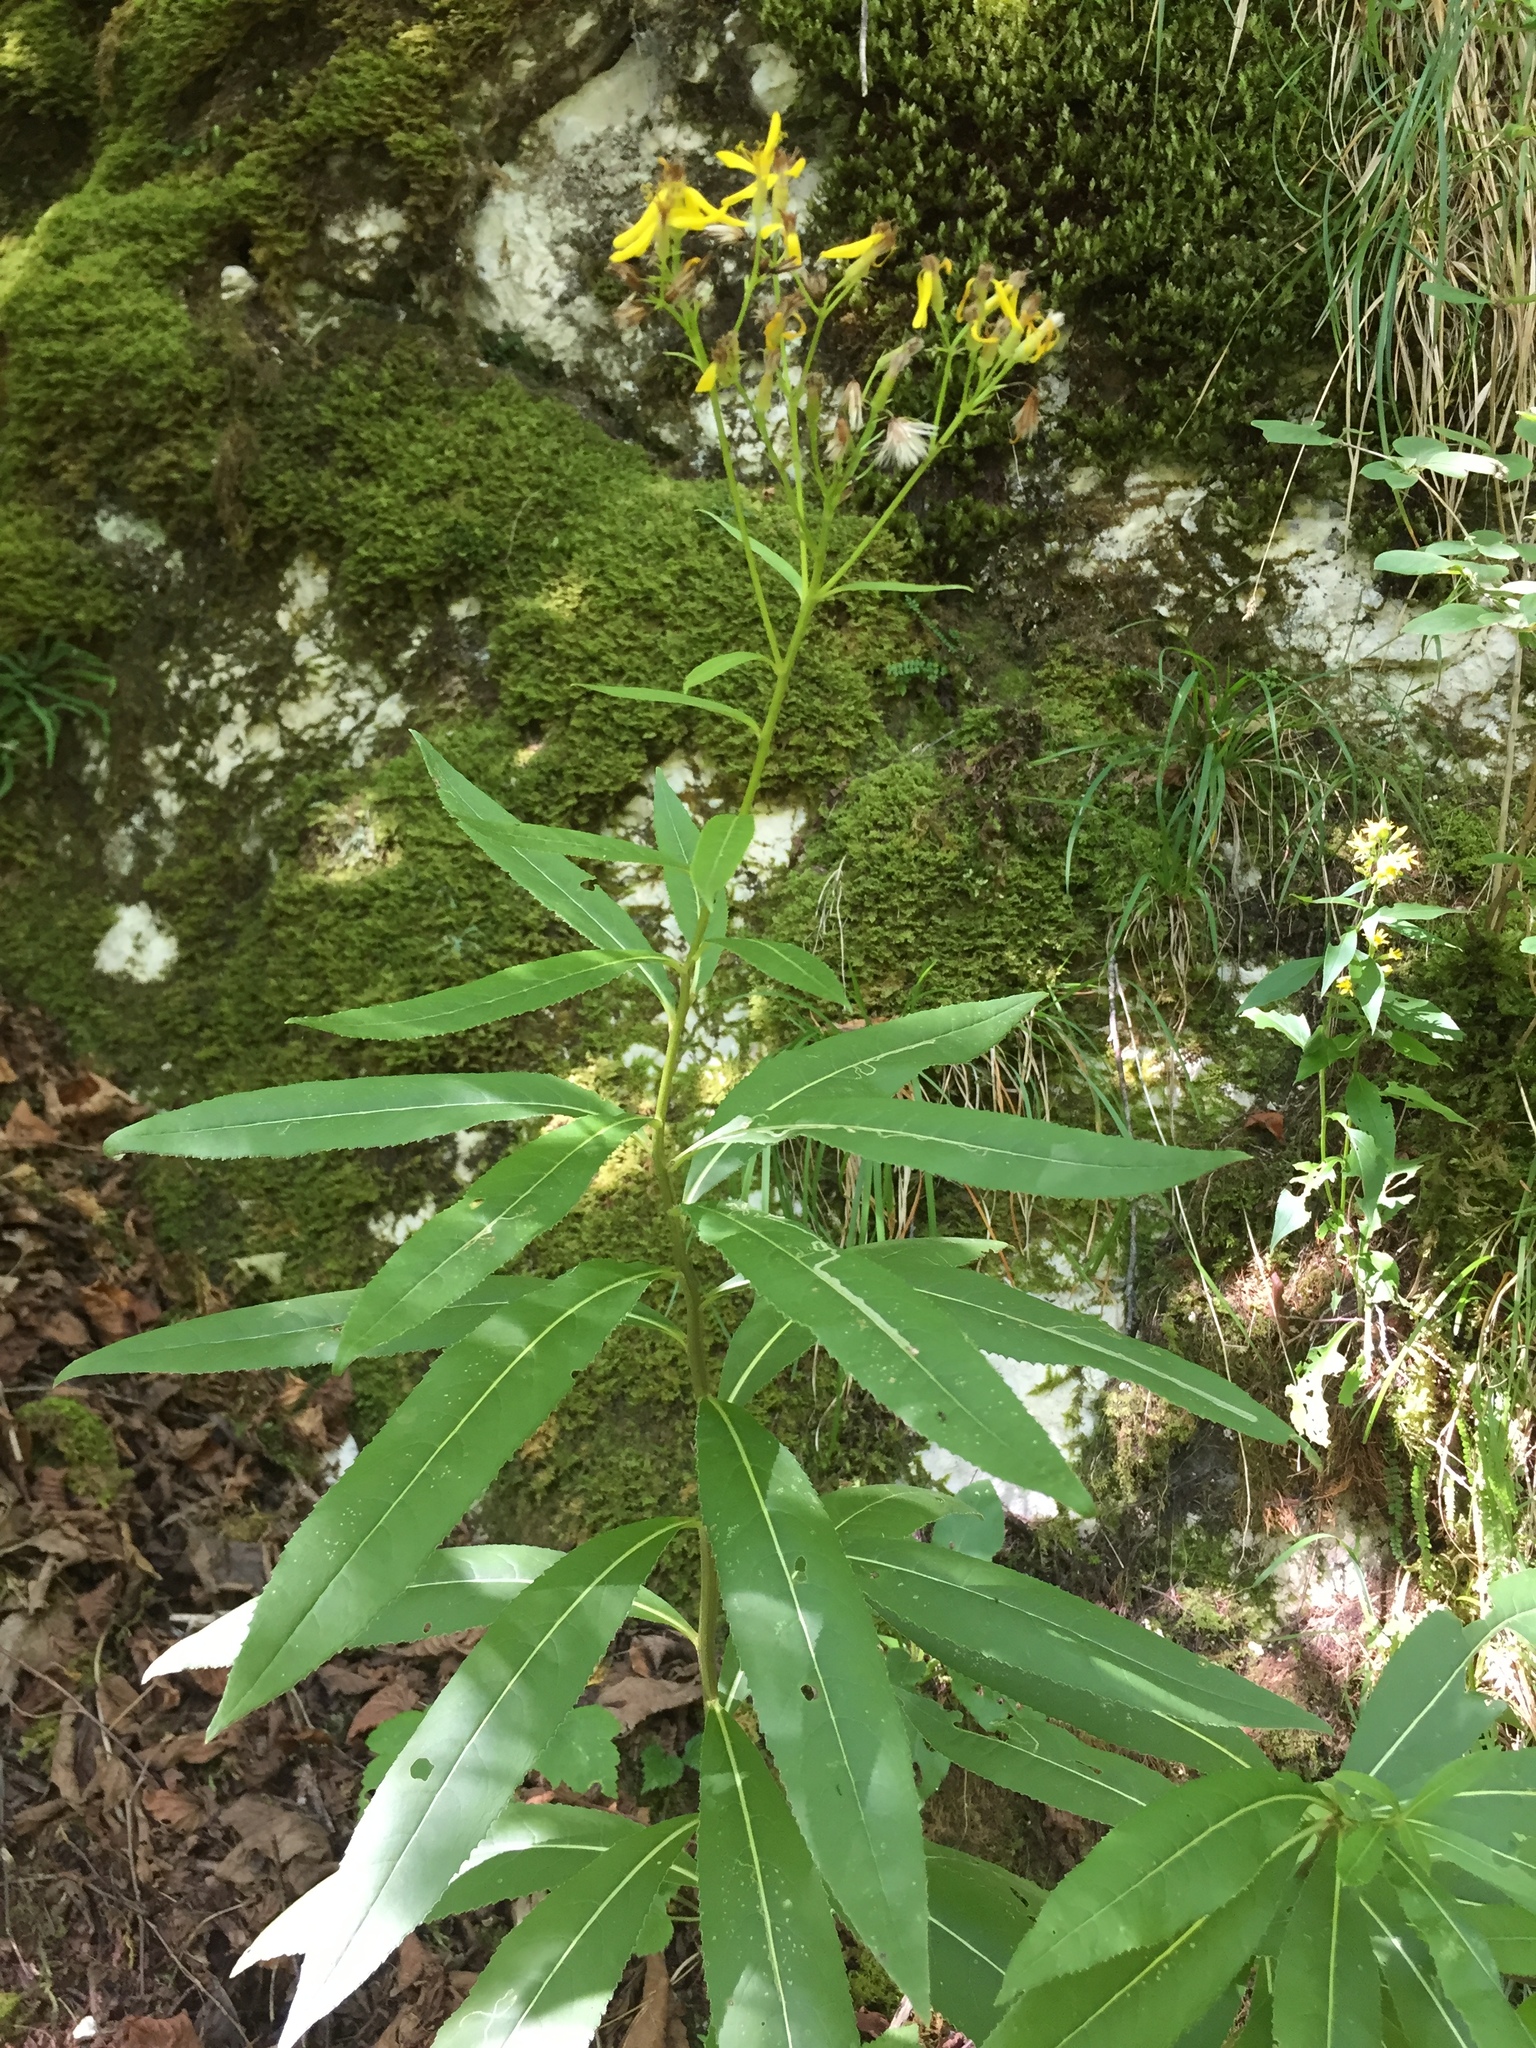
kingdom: Plantae
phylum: Tracheophyta
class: Magnoliopsida
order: Asterales
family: Asteraceae
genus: Senecio
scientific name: Senecio ovatus
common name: Wood ragwort
